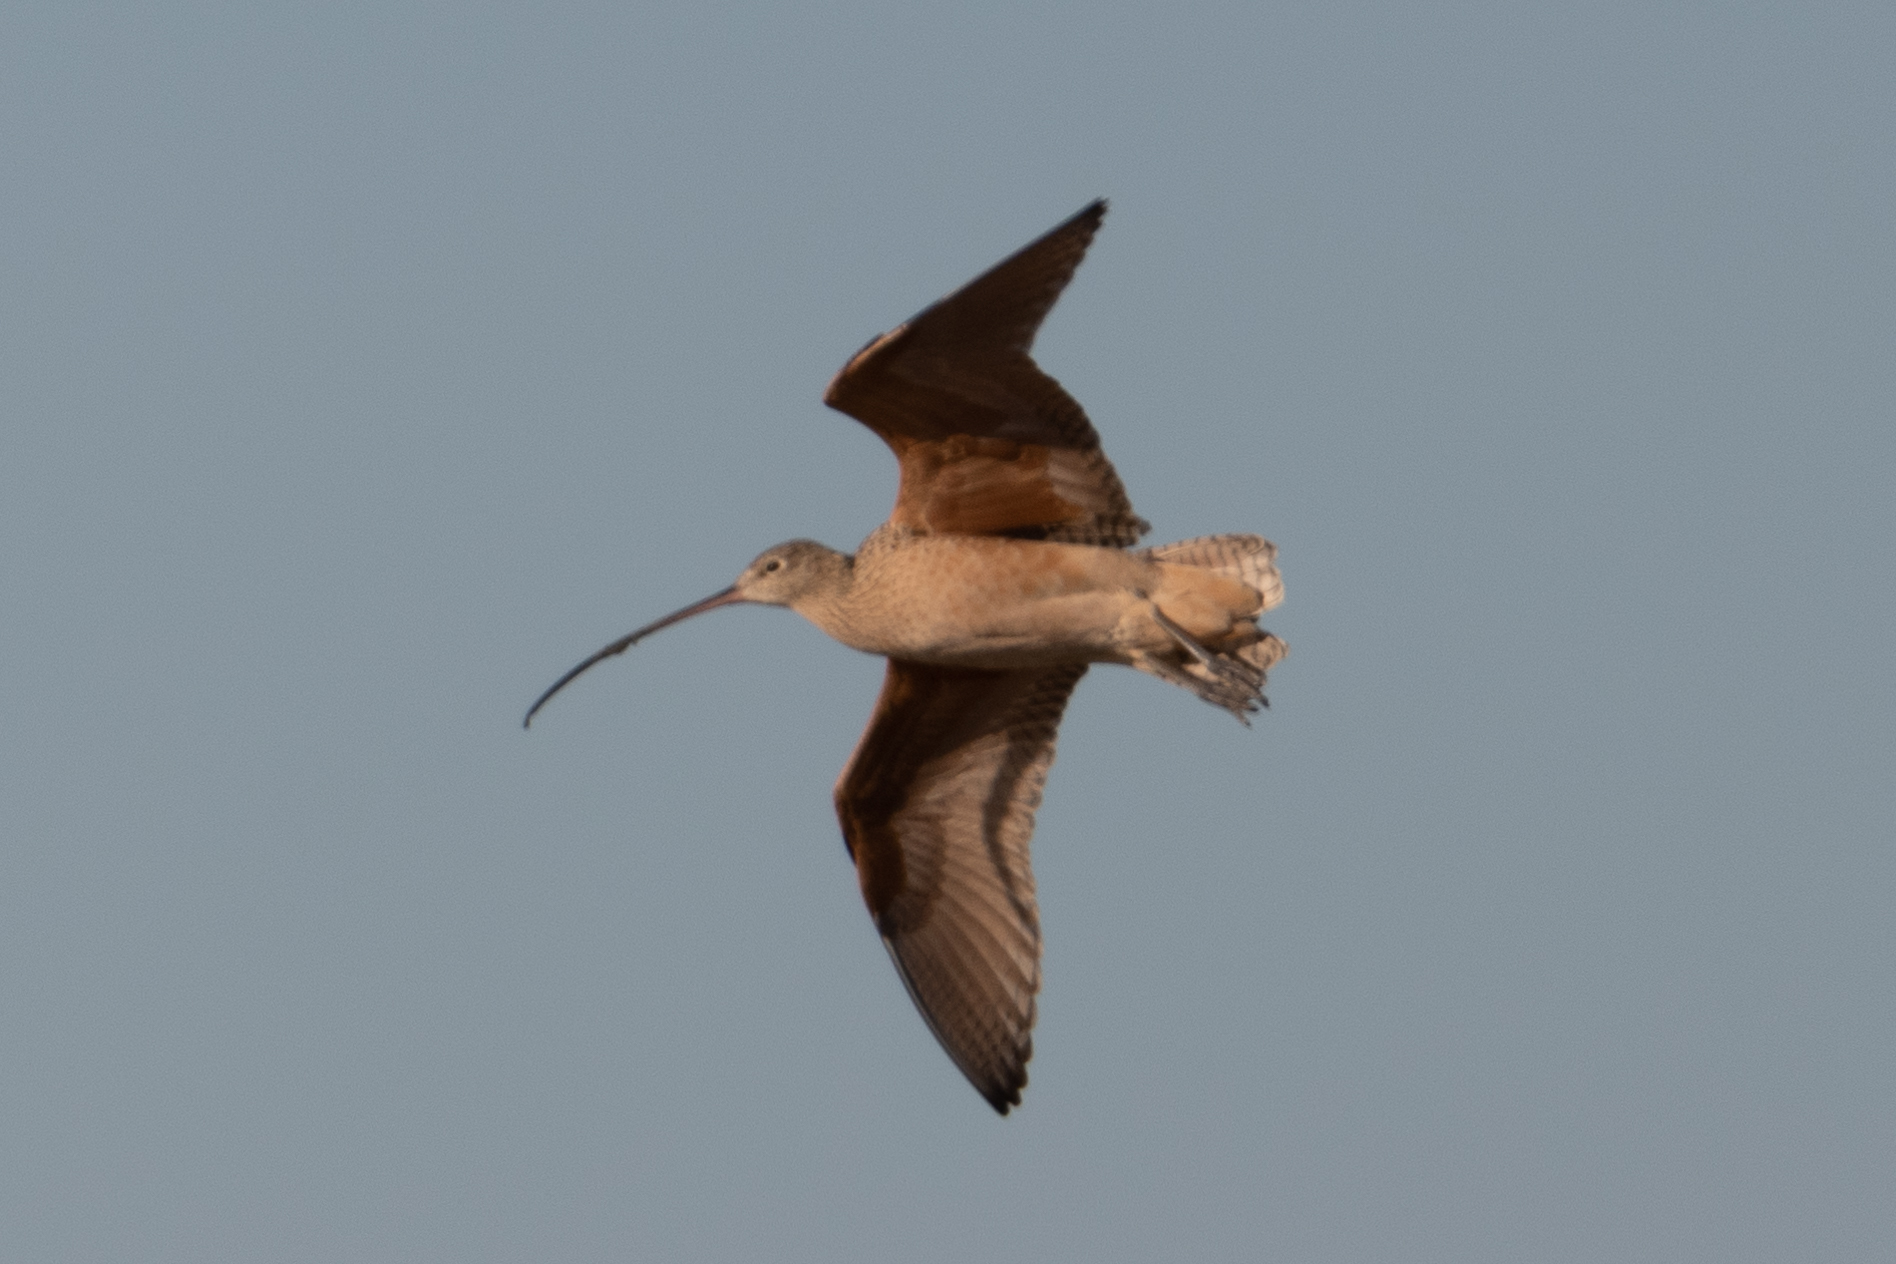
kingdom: Animalia
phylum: Chordata
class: Aves
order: Charadriiformes
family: Scolopacidae
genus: Numenius
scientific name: Numenius americanus
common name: Long-billed curlew
